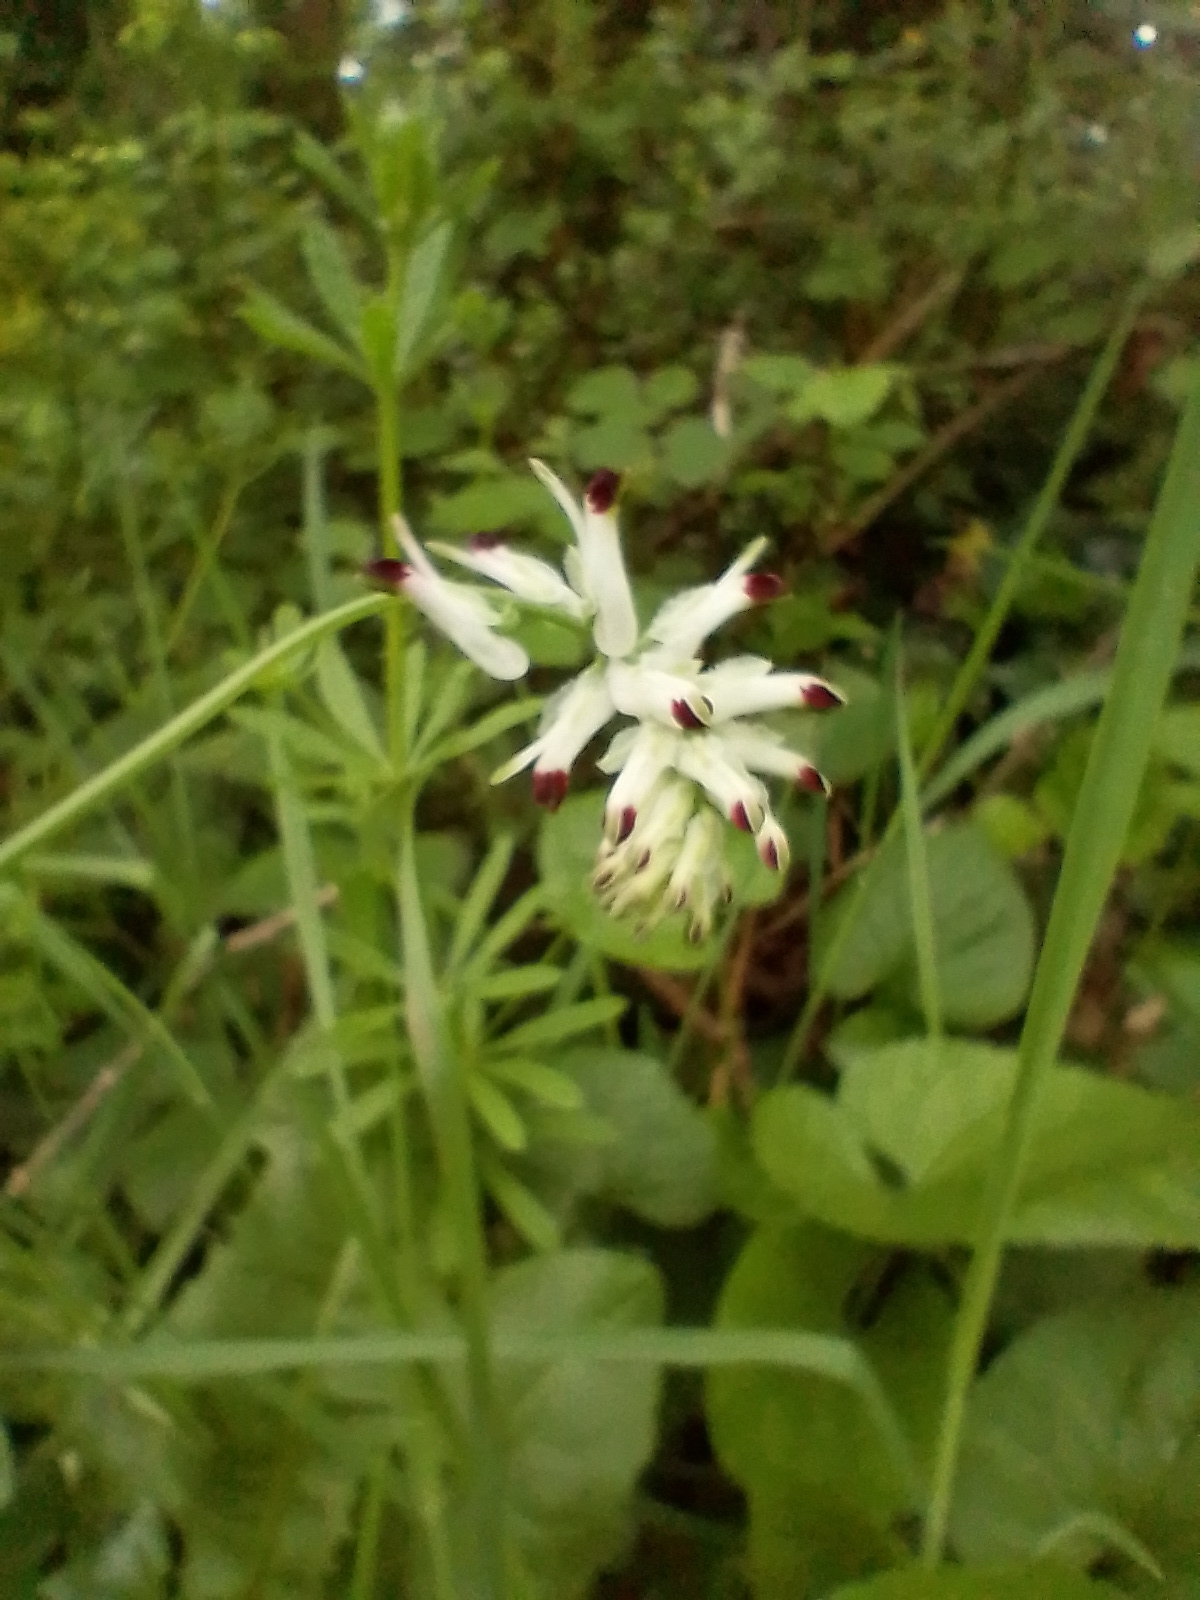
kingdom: Plantae
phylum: Tracheophyta
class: Magnoliopsida
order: Ranunculales
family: Papaveraceae
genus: Fumaria
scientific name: Fumaria capreolata
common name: White ramping-fumitory
